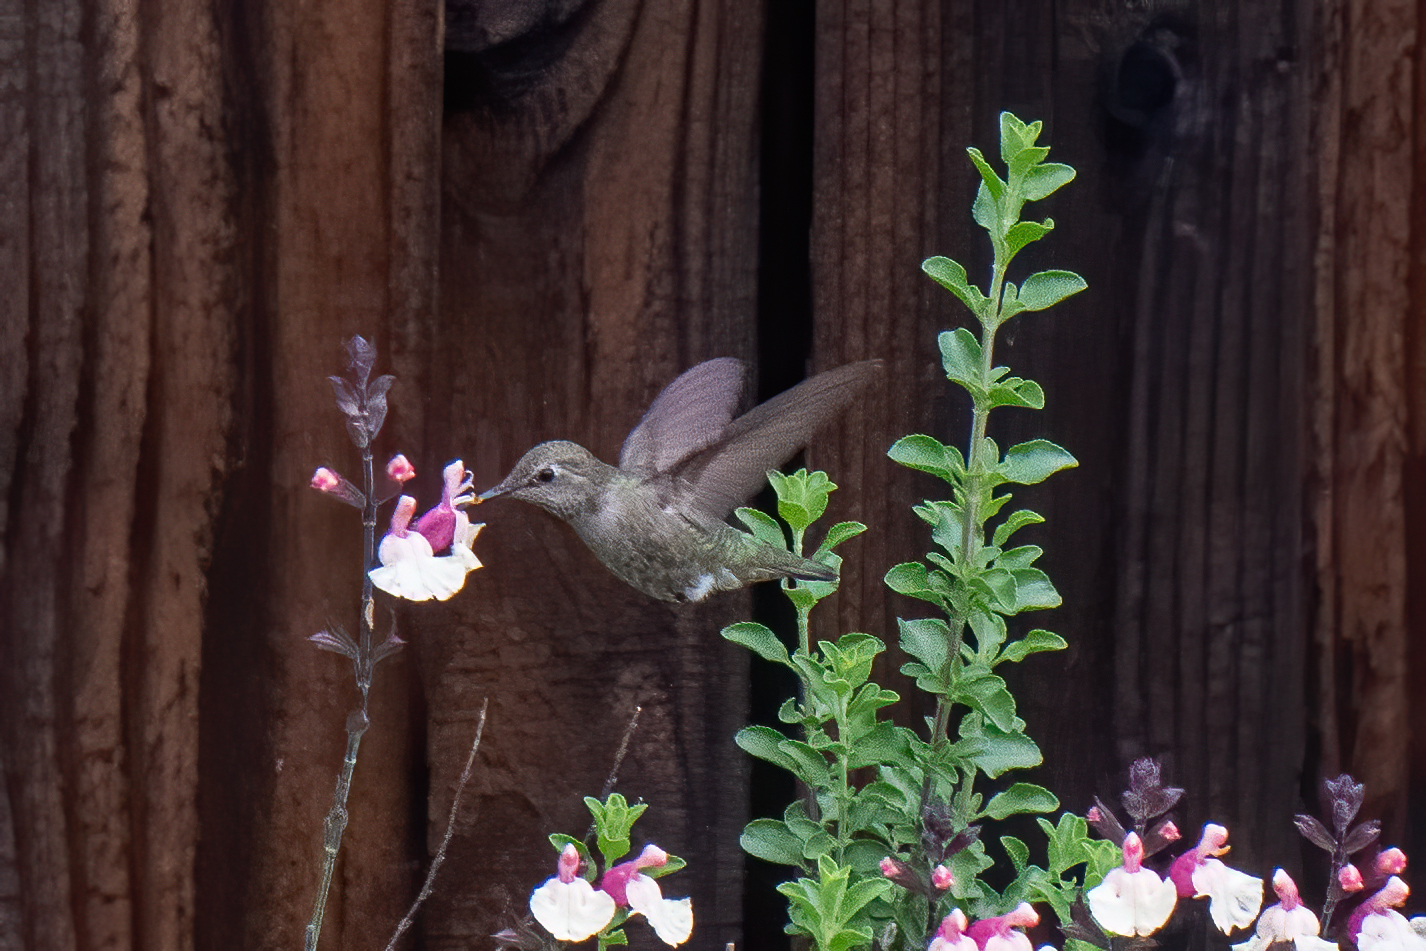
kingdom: Animalia
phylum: Chordata
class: Aves
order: Apodiformes
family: Trochilidae
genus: Calypte
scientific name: Calypte anna
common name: Anna's hummingbird
